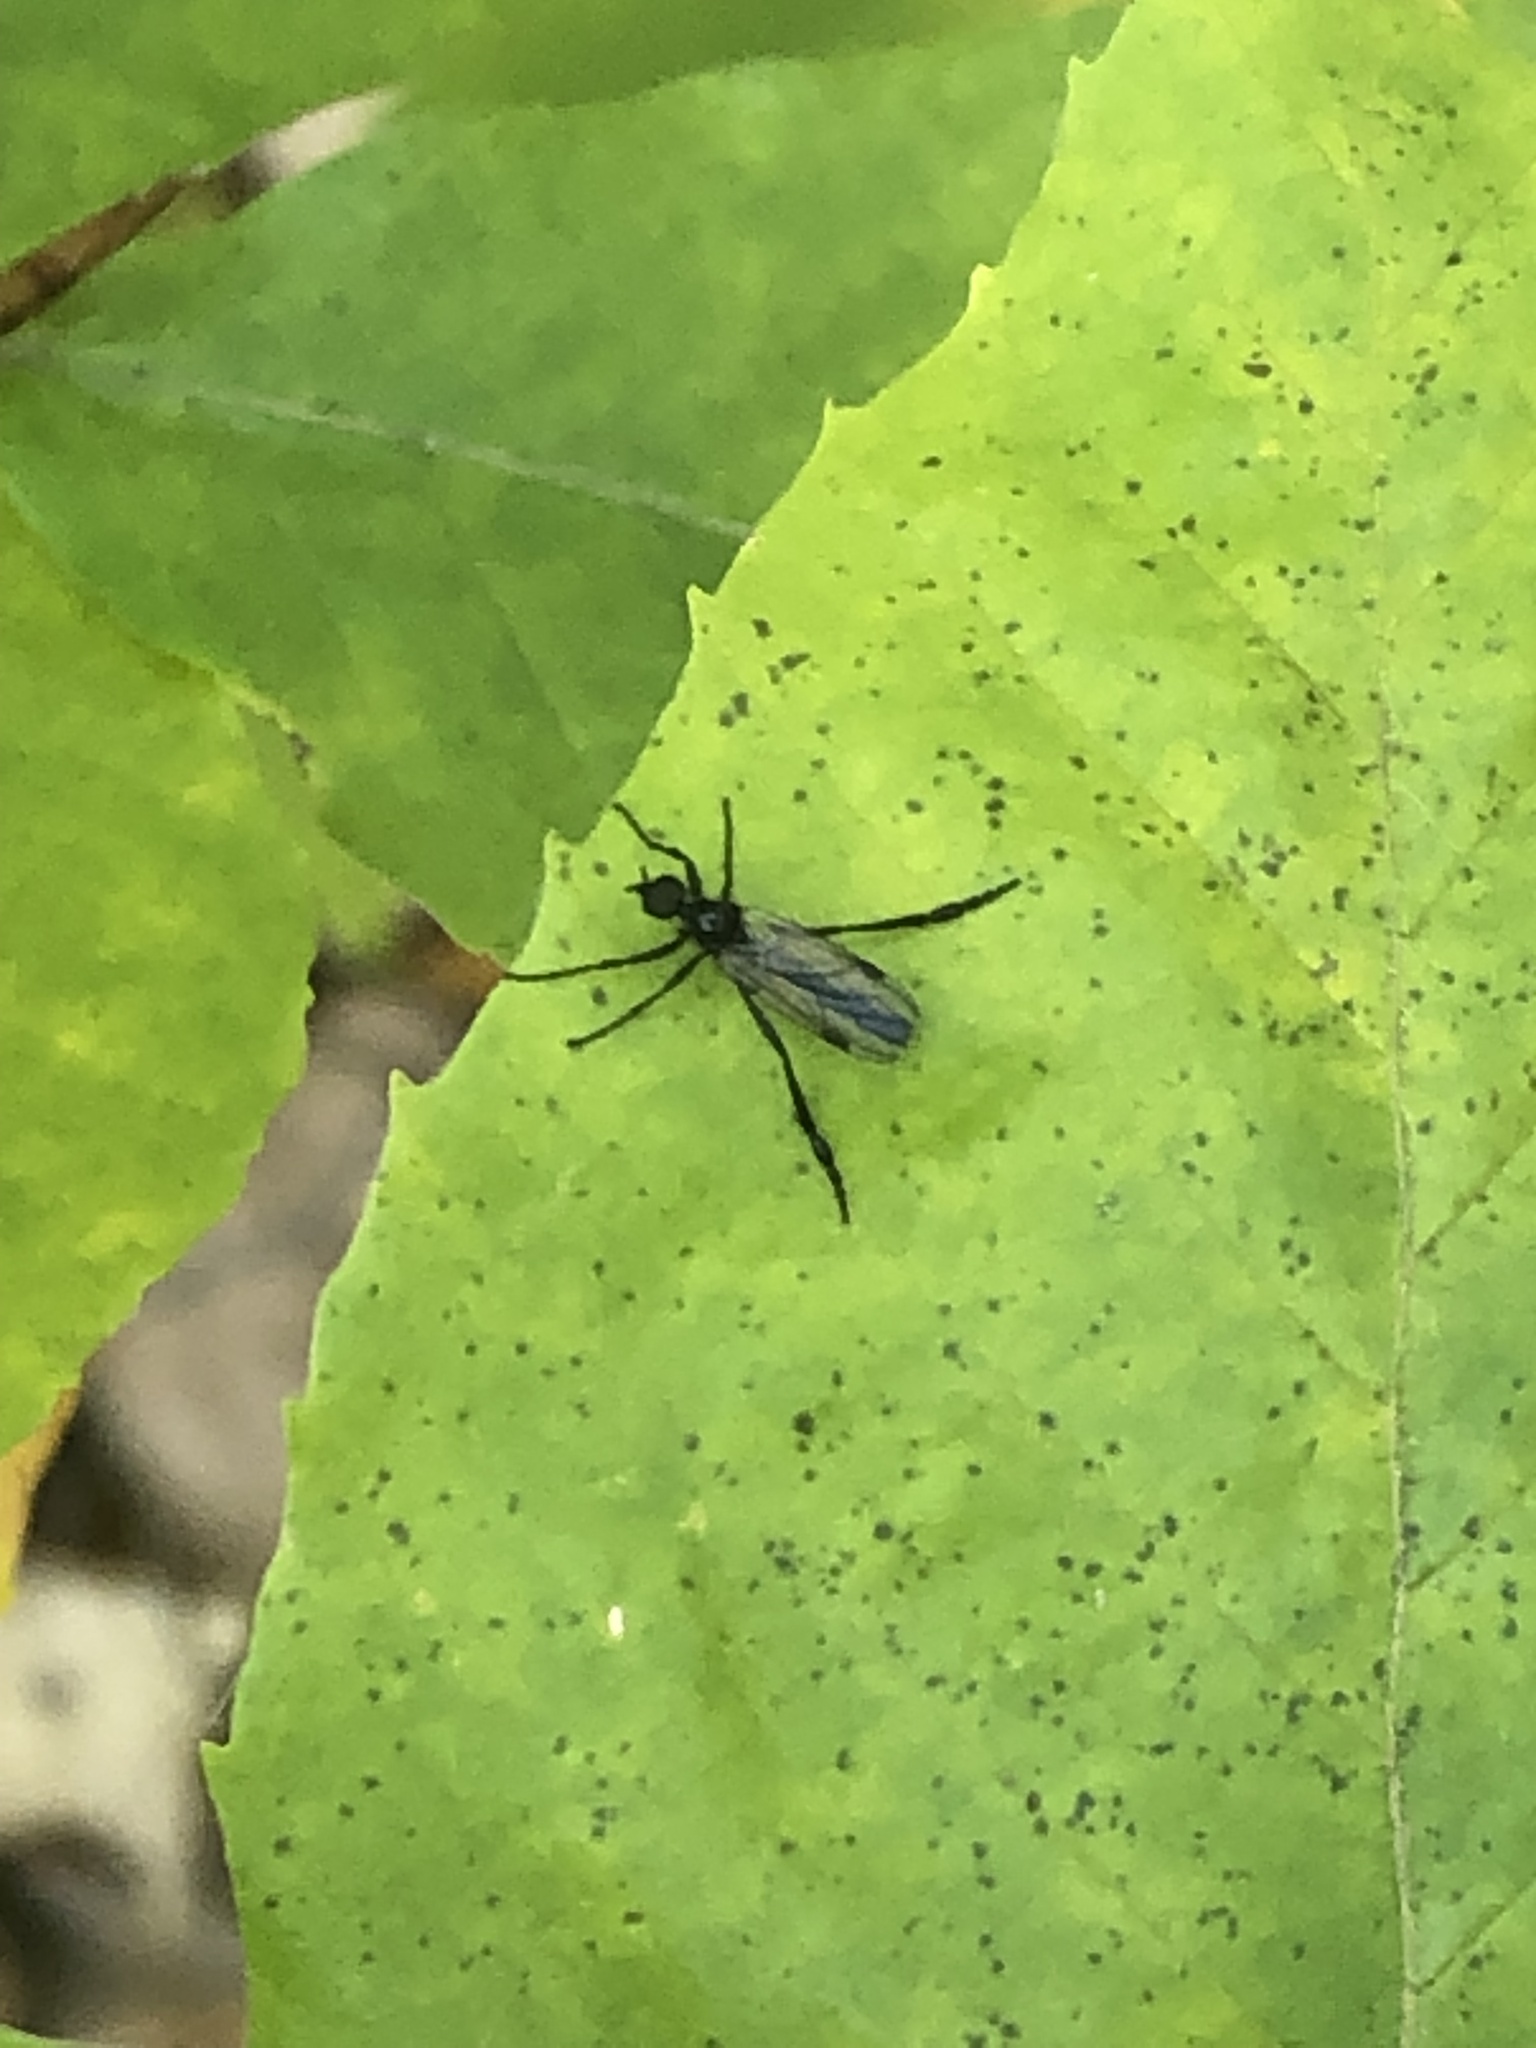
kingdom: Animalia
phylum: Arthropoda
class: Insecta
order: Diptera
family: Bibionidae
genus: Bibio
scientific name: Bibio
